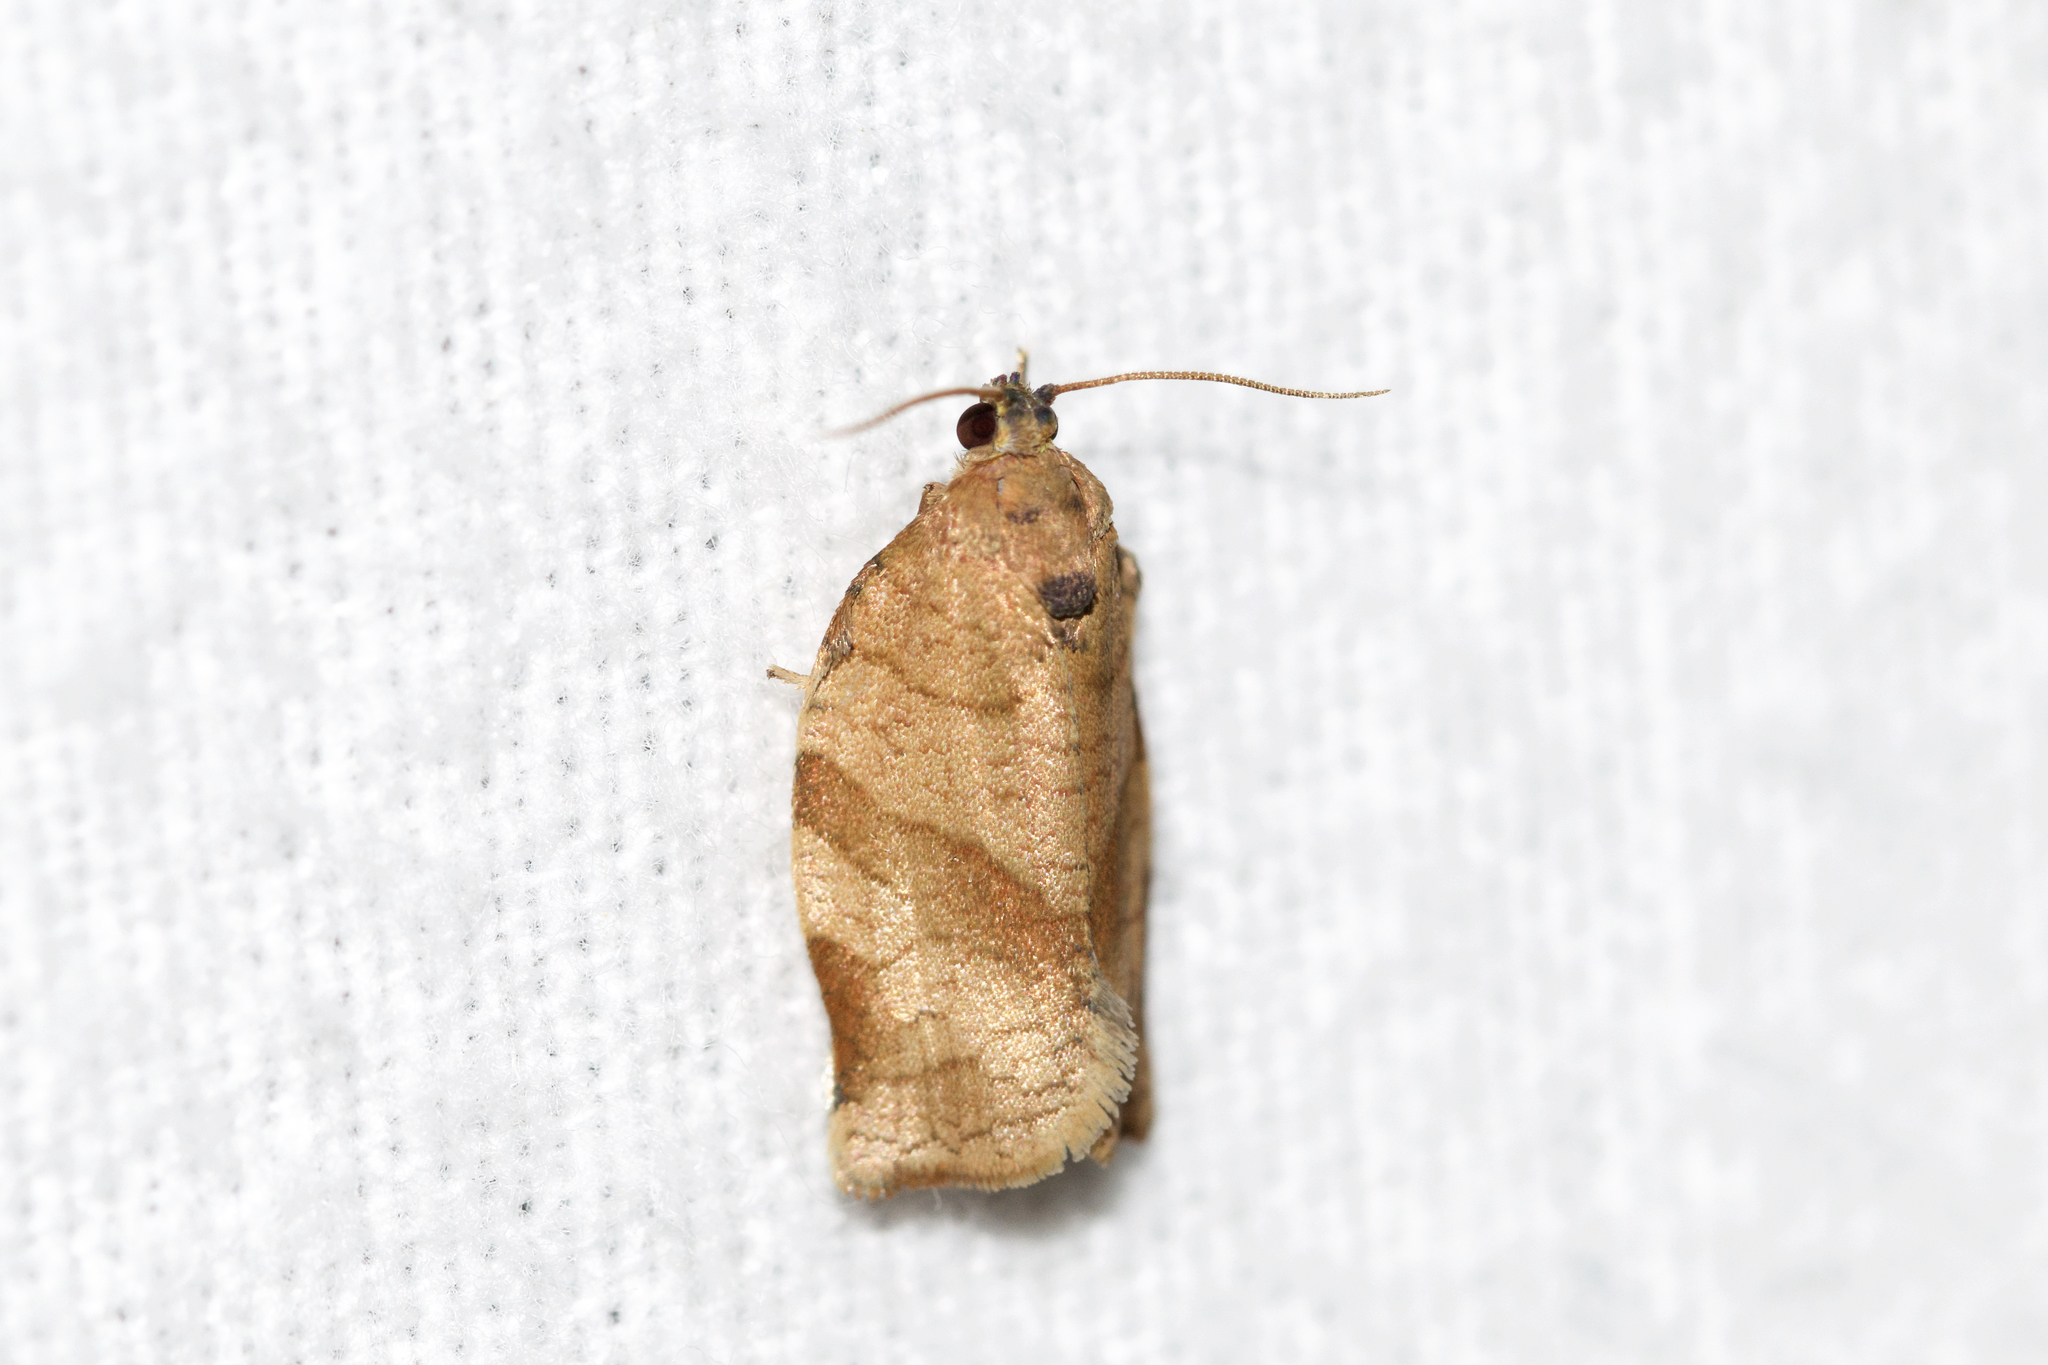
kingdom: Animalia
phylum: Arthropoda
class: Insecta
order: Lepidoptera
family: Tortricidae
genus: Choristoneura
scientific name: Choristoneura rosaceana
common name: Oblique-banded leafroller moth
